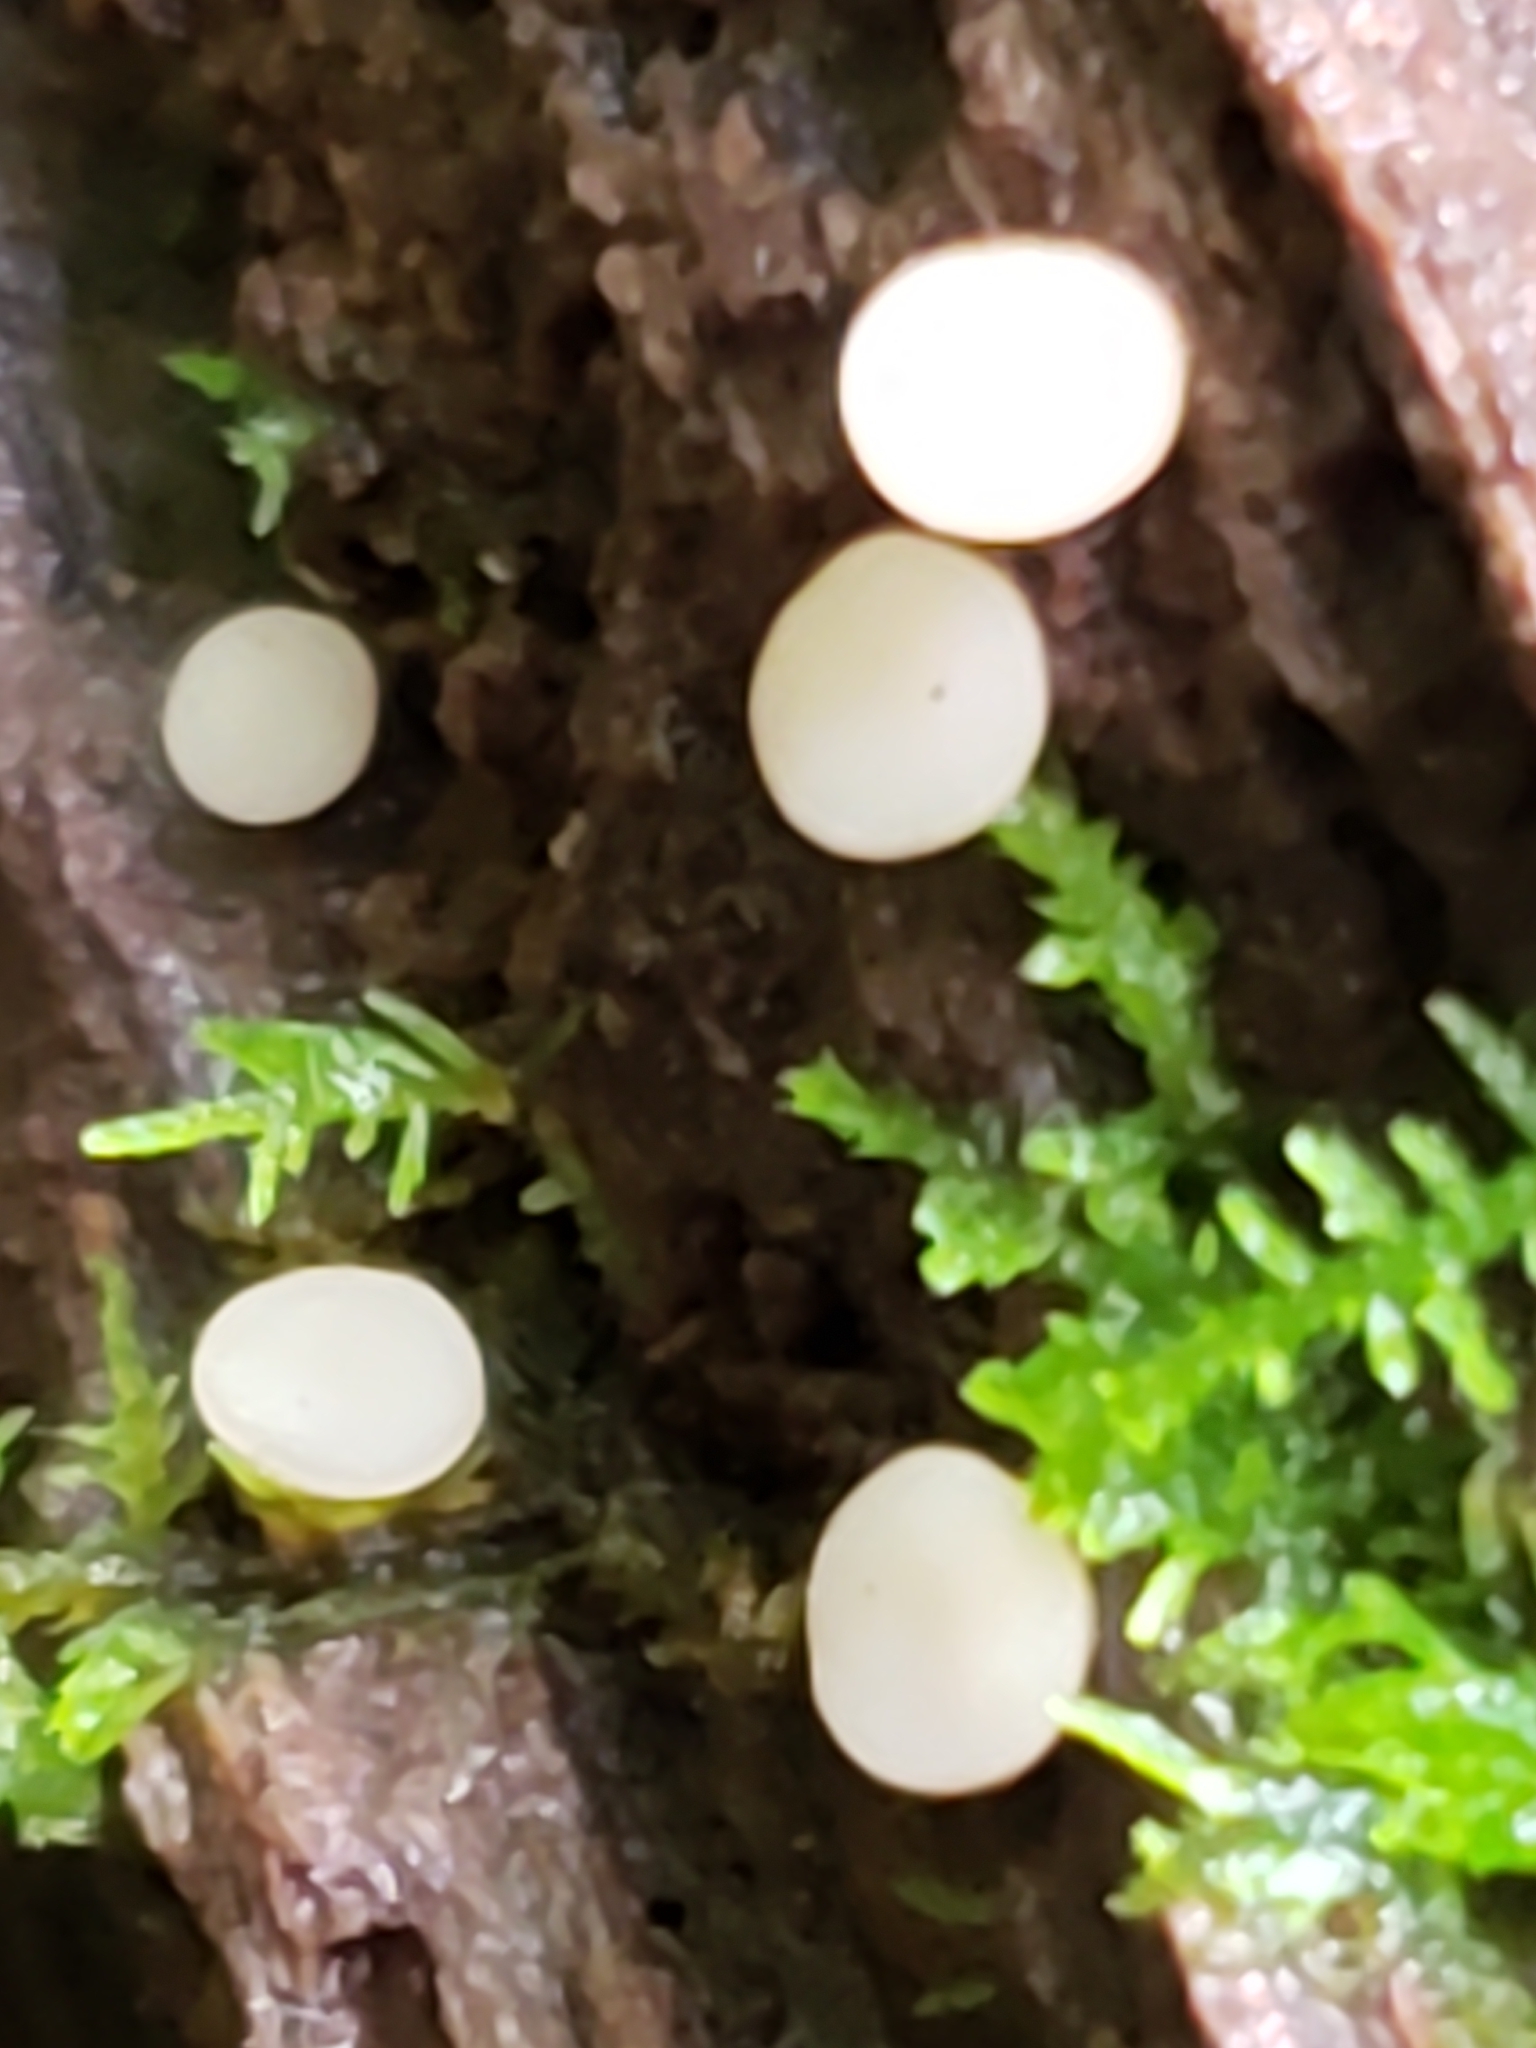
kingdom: Fungi
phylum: Ascomycota
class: Leotiomycetes
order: Helotiales
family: Helotiaceae
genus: Tatraea
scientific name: Tatraea macrospora
